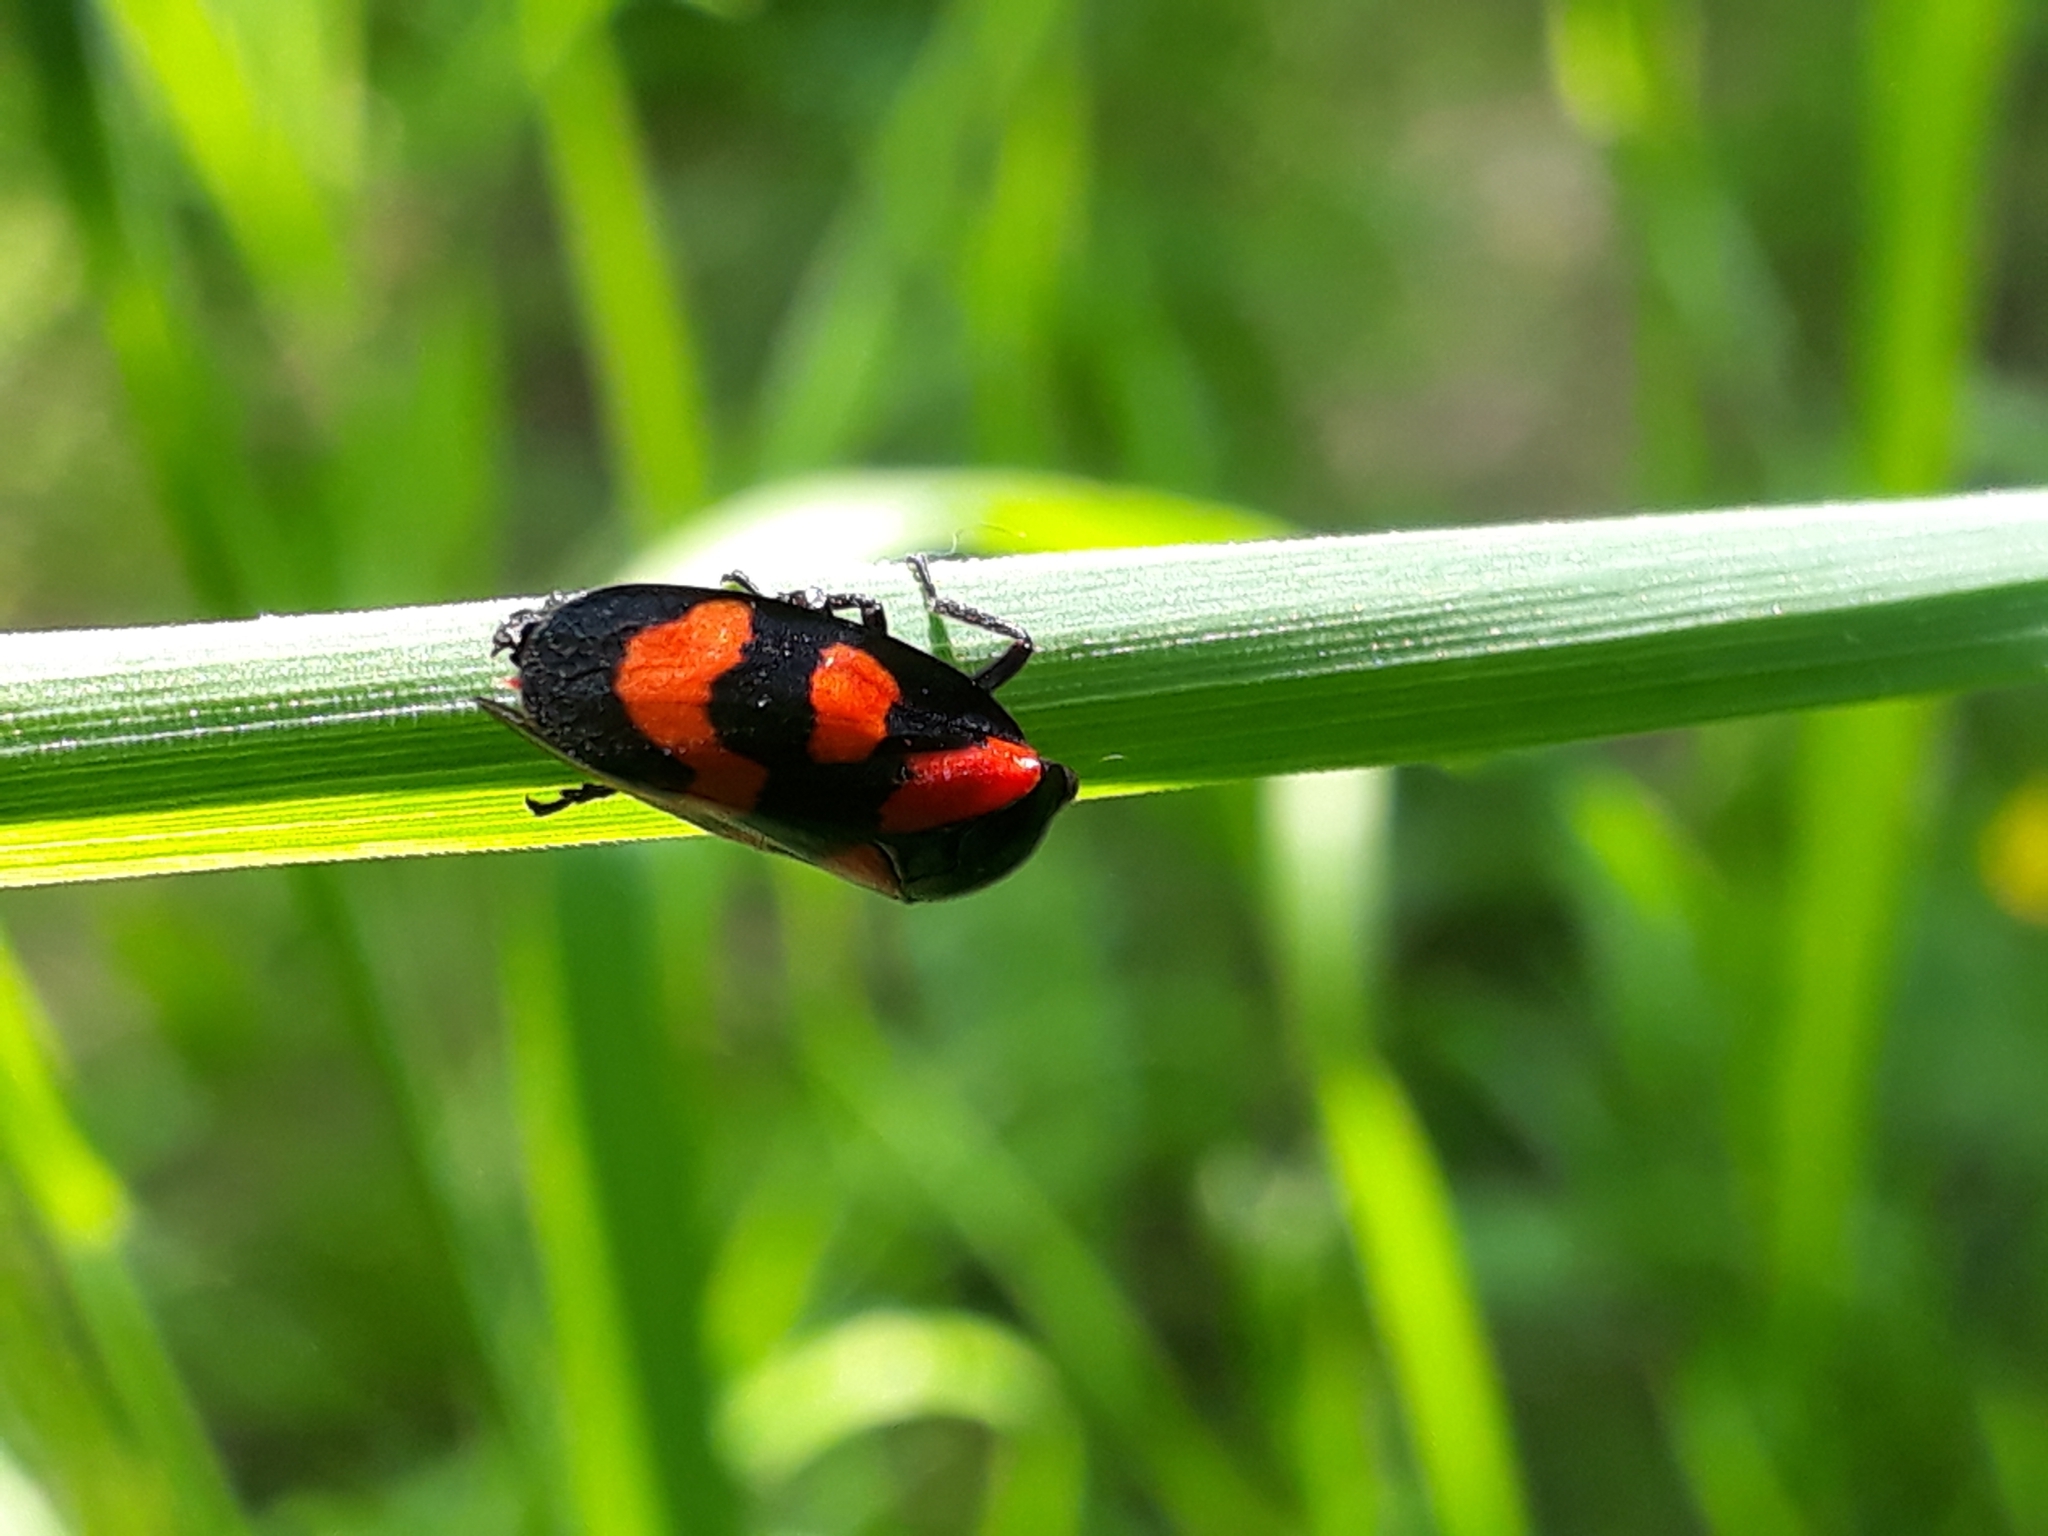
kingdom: Animalia
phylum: Arthropoda
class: Insecta
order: Hemiptera
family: Cercopidae
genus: Cercopis
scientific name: Cercopis vulnerata
